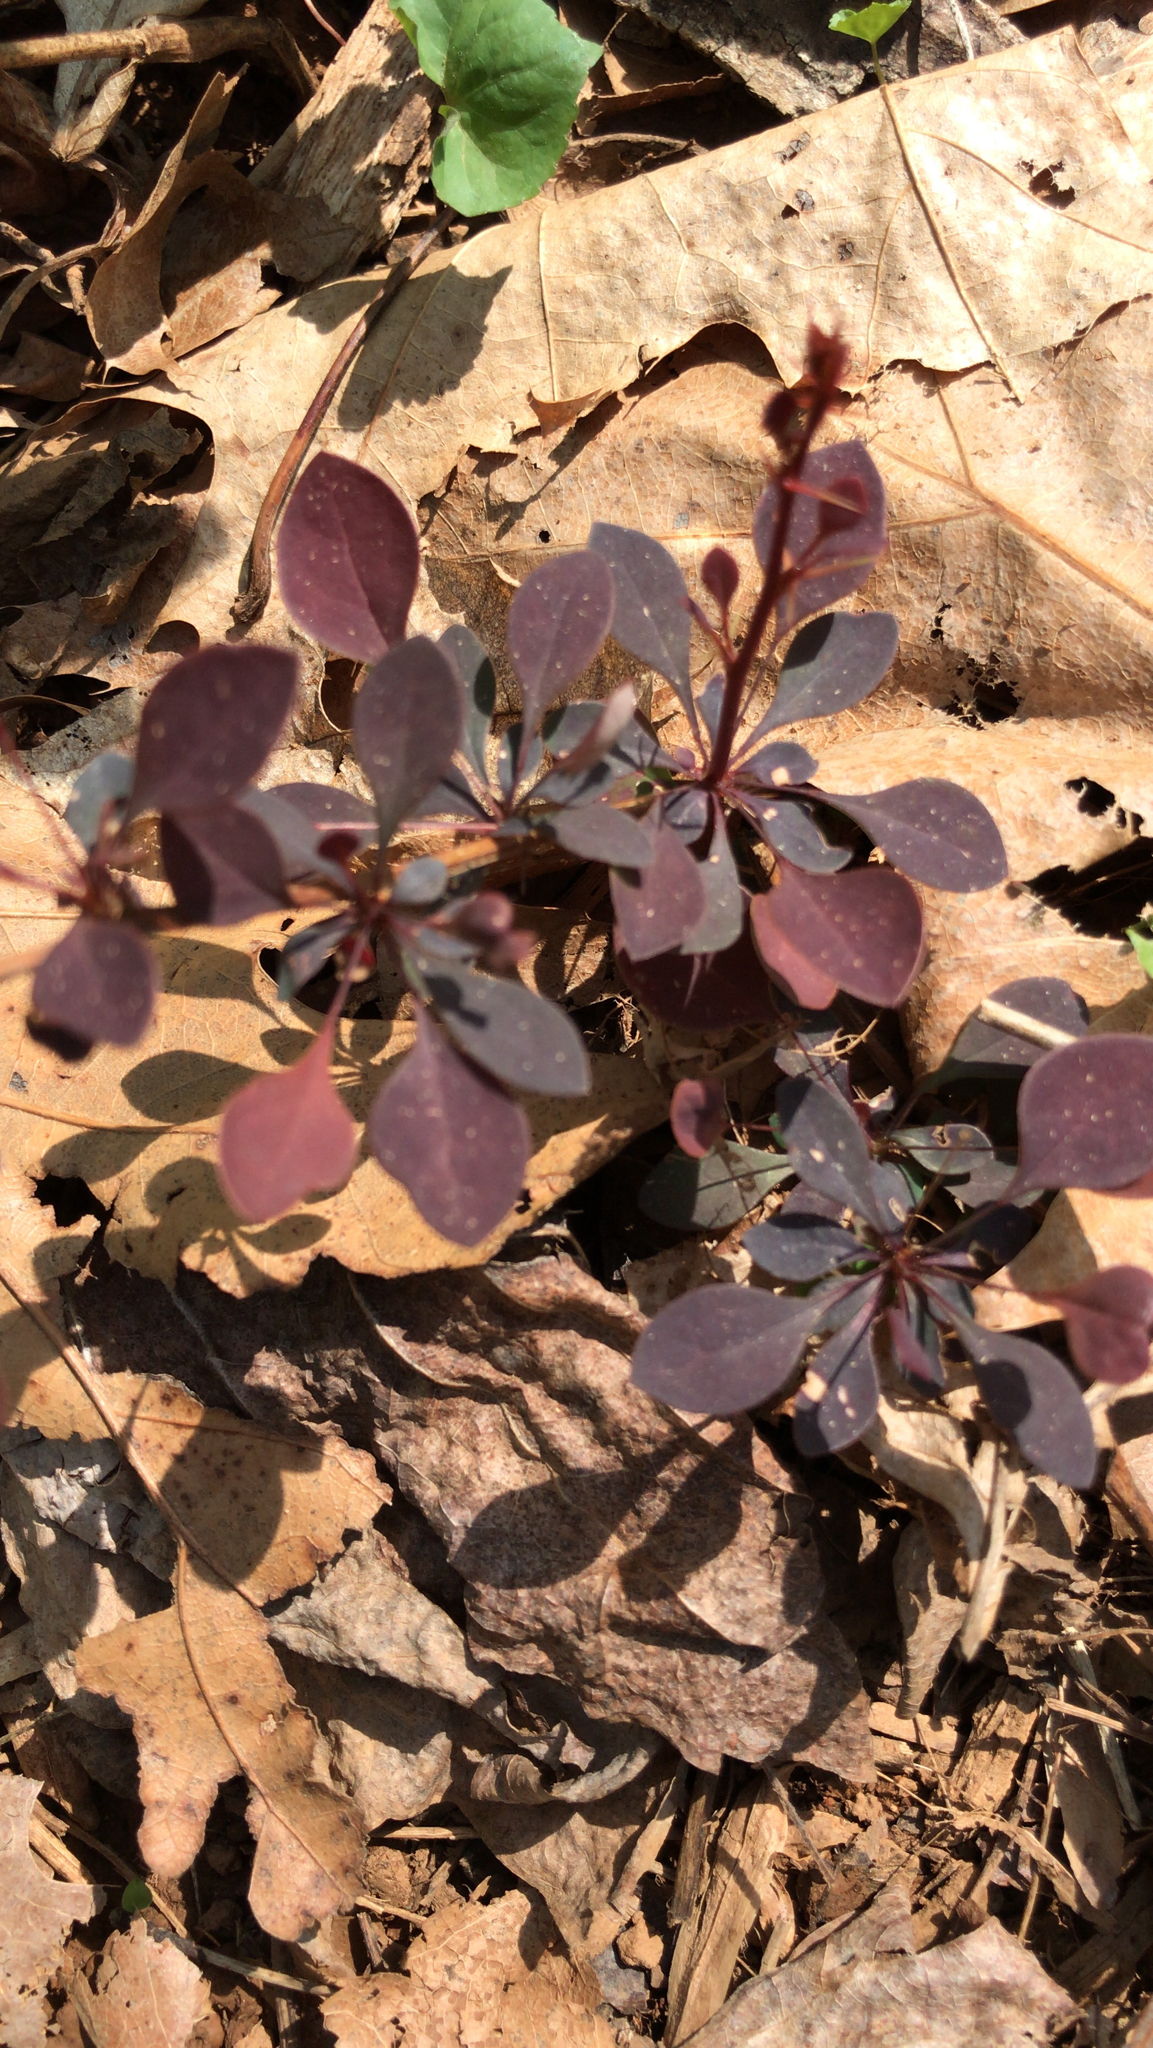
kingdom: Plantae
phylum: Tracheophyta
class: Magnoliopsida
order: Ranunculales
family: Berberidaceae
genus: Berberis
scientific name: Berberis thunbergii
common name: Japanese barberry
